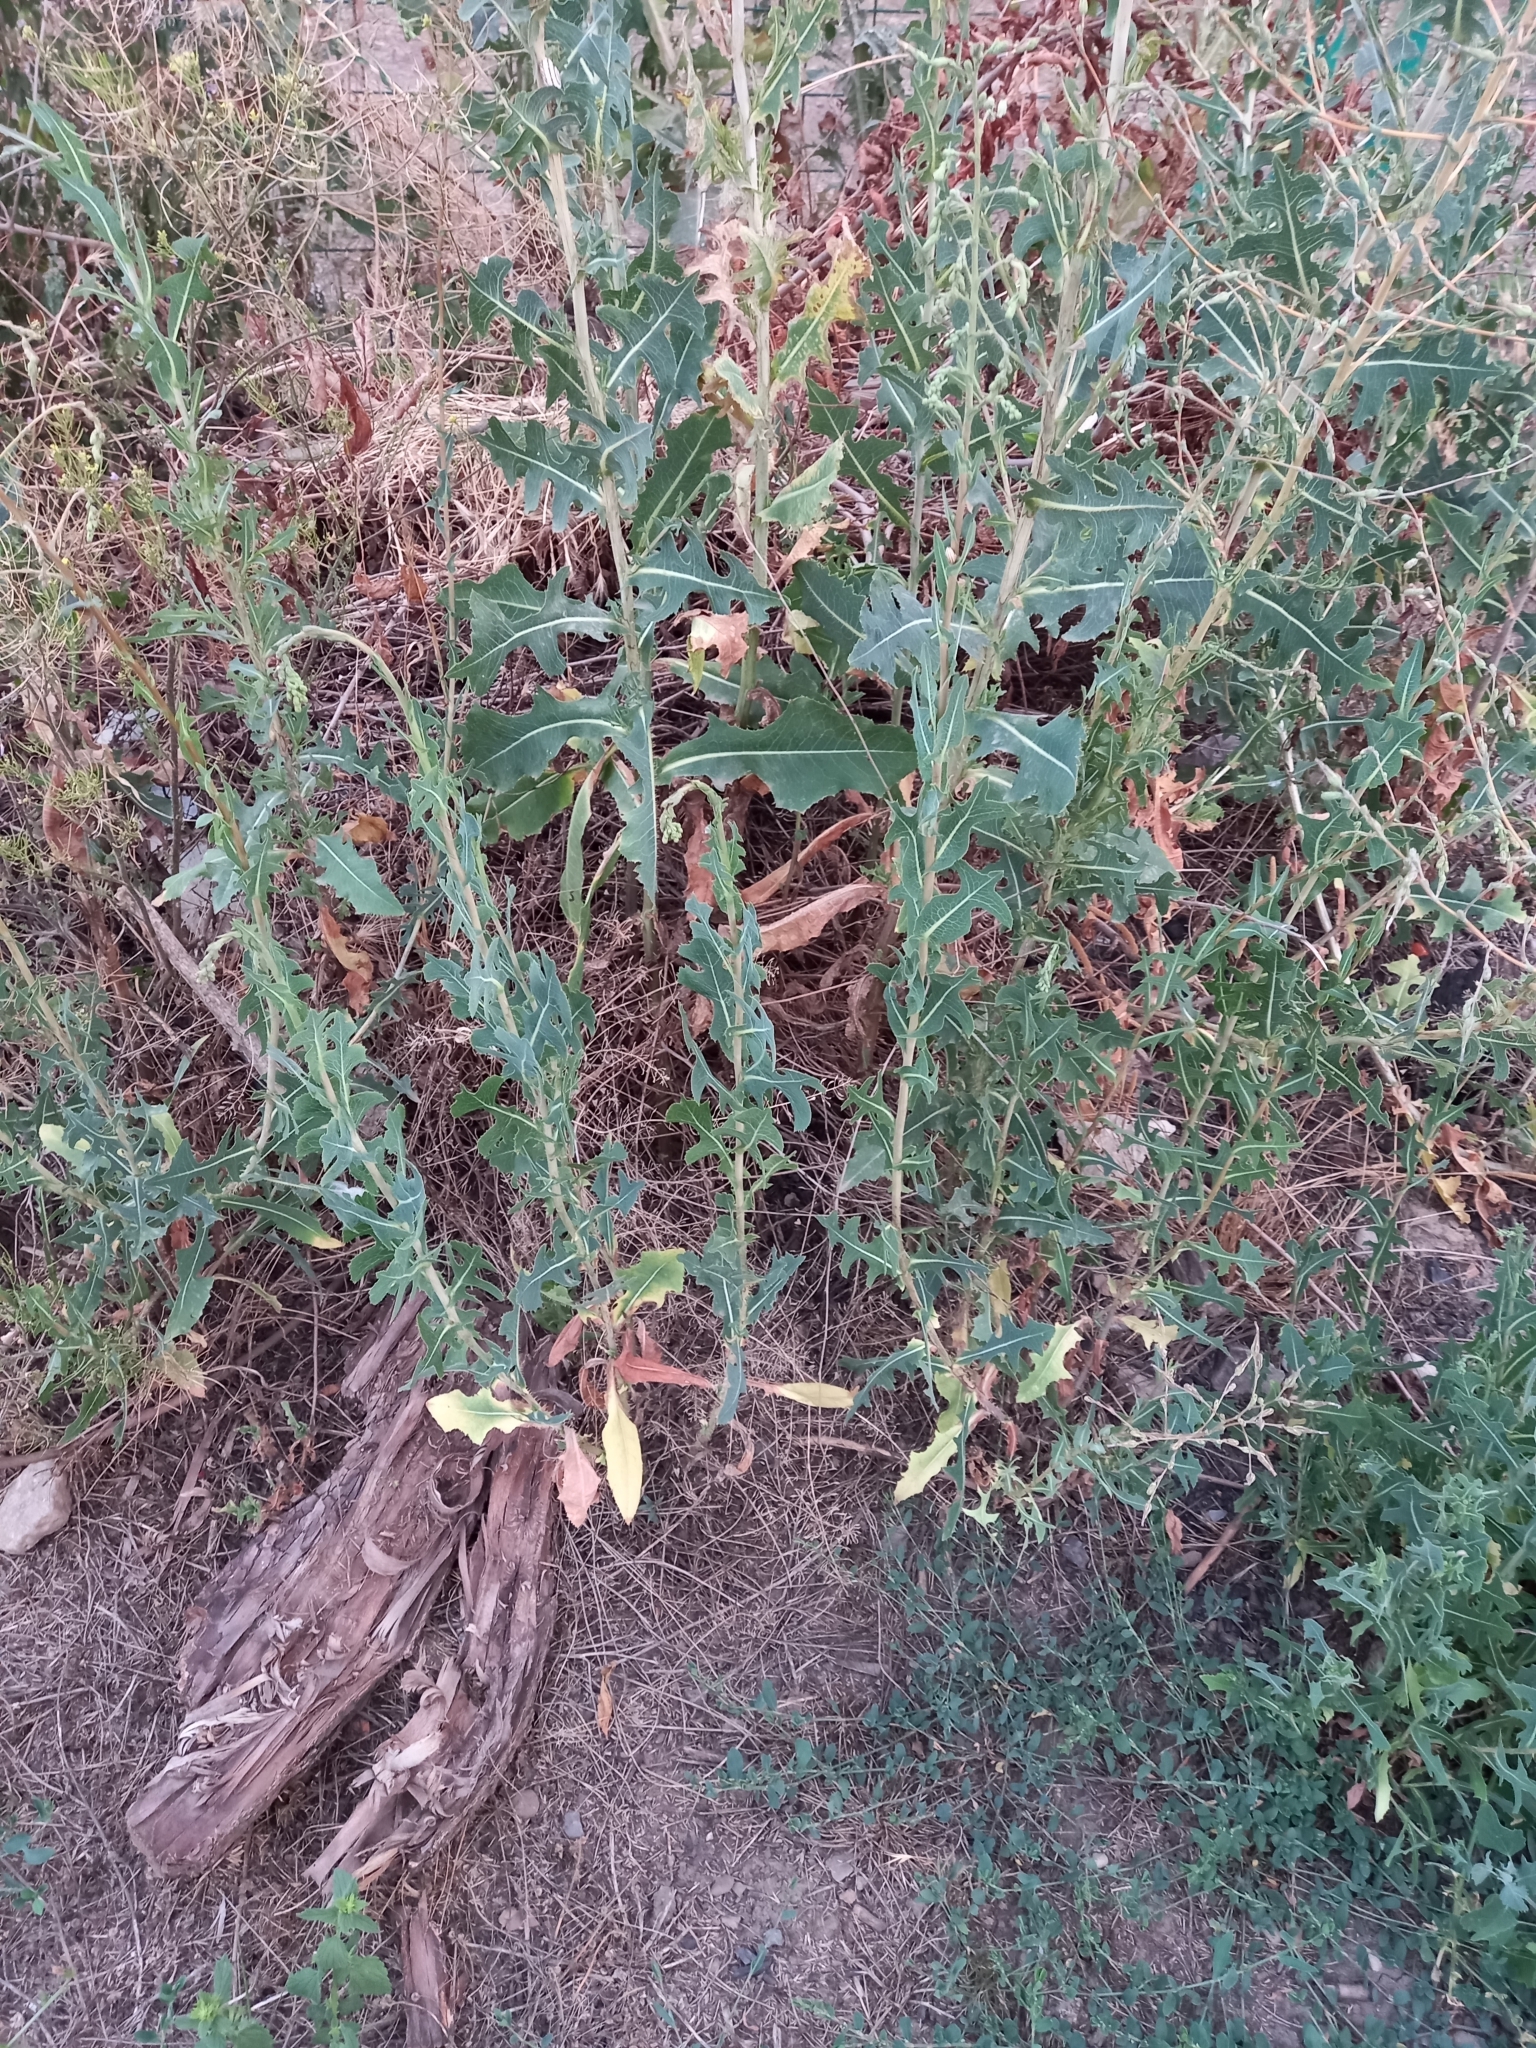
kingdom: Plantae
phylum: Tracheophyta
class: Magnoliopsida
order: Asterales
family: Asteraceae
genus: Lactuca
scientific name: Lactuca serriola
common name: Prickly lettuce
